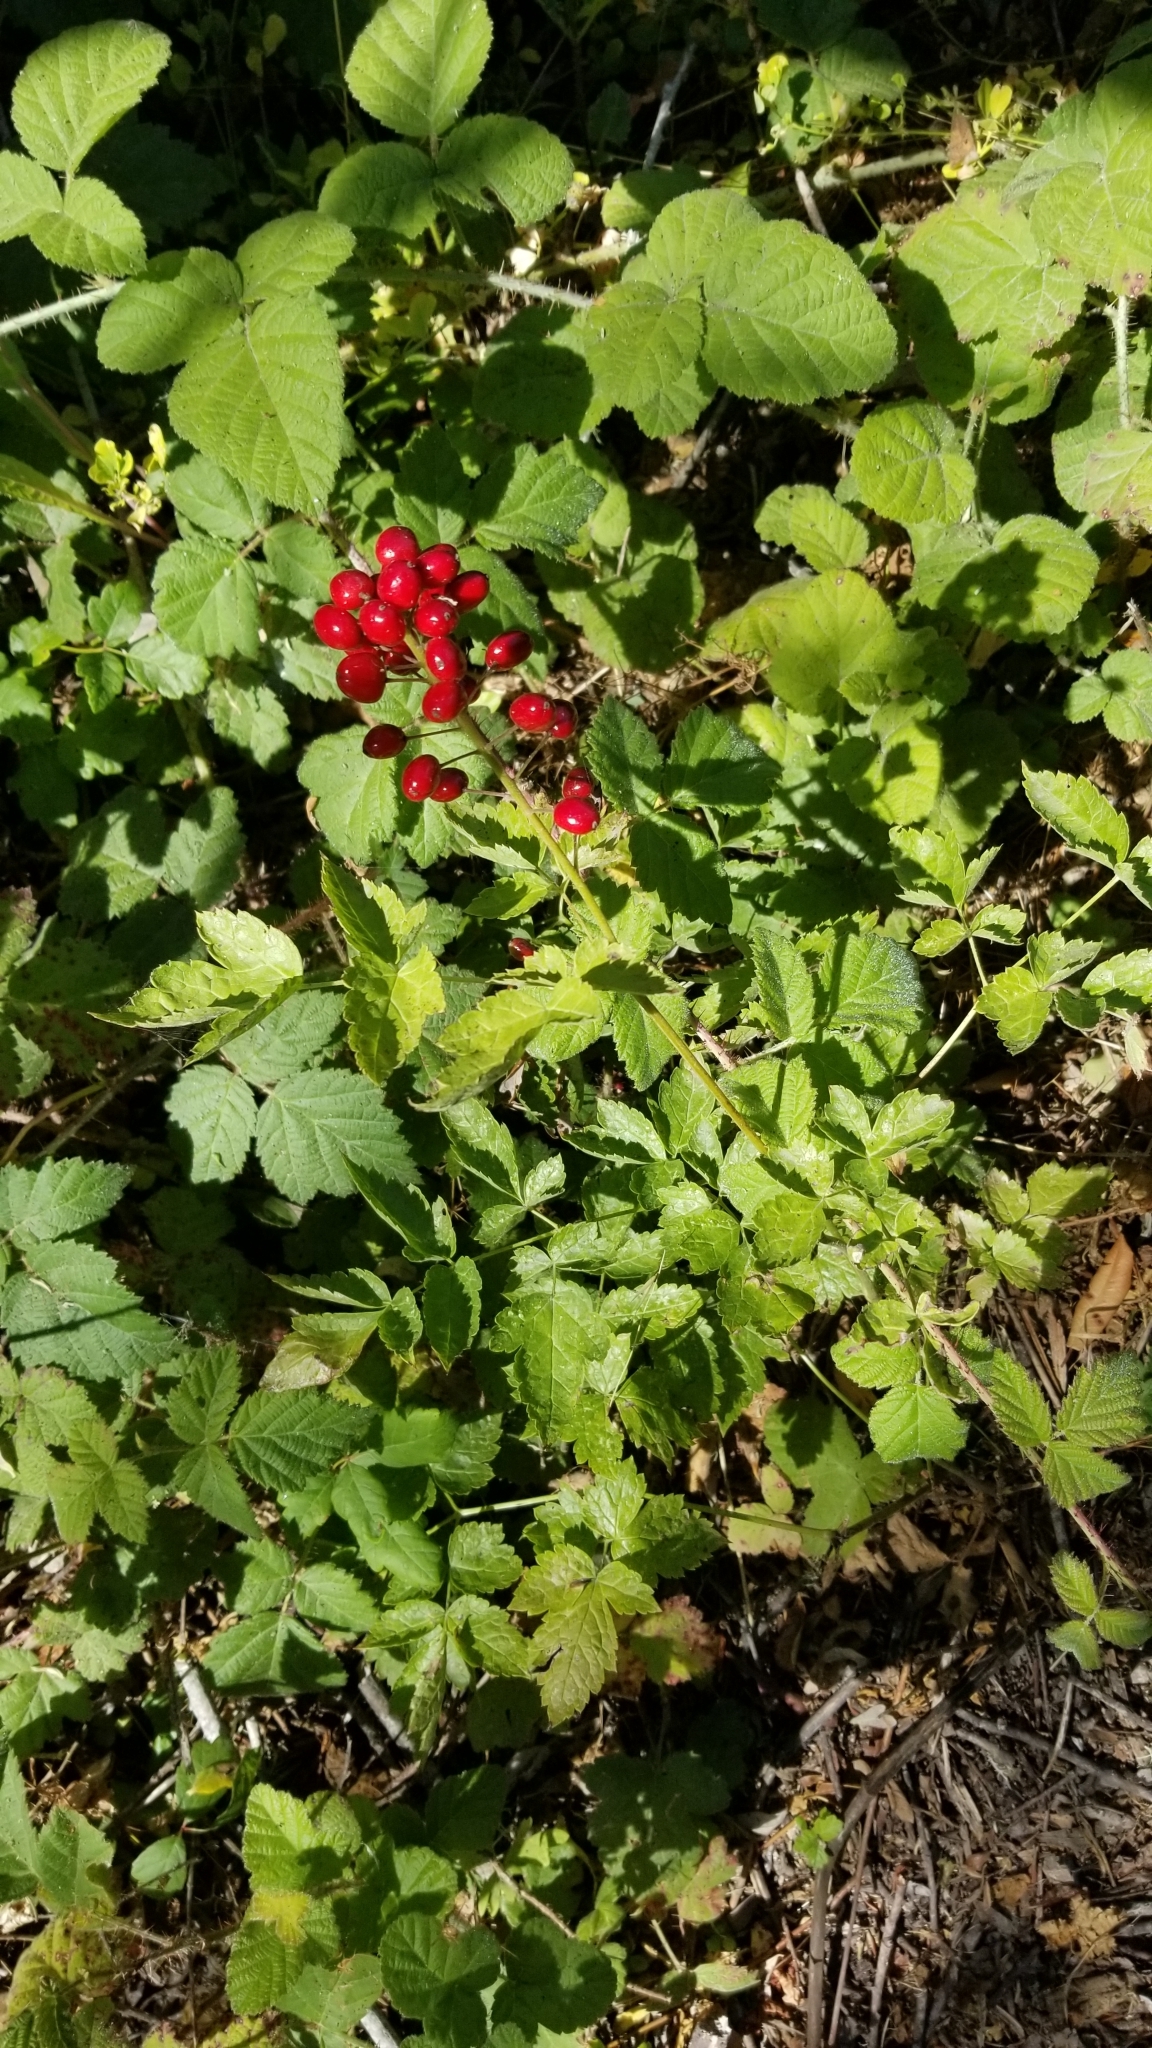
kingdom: Plantae
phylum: Tracheophyta
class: Magnoliopsida
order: Ranunculales
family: Ranunculaceae
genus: Actaea
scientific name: Actaea rubra
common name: Red baneberry
